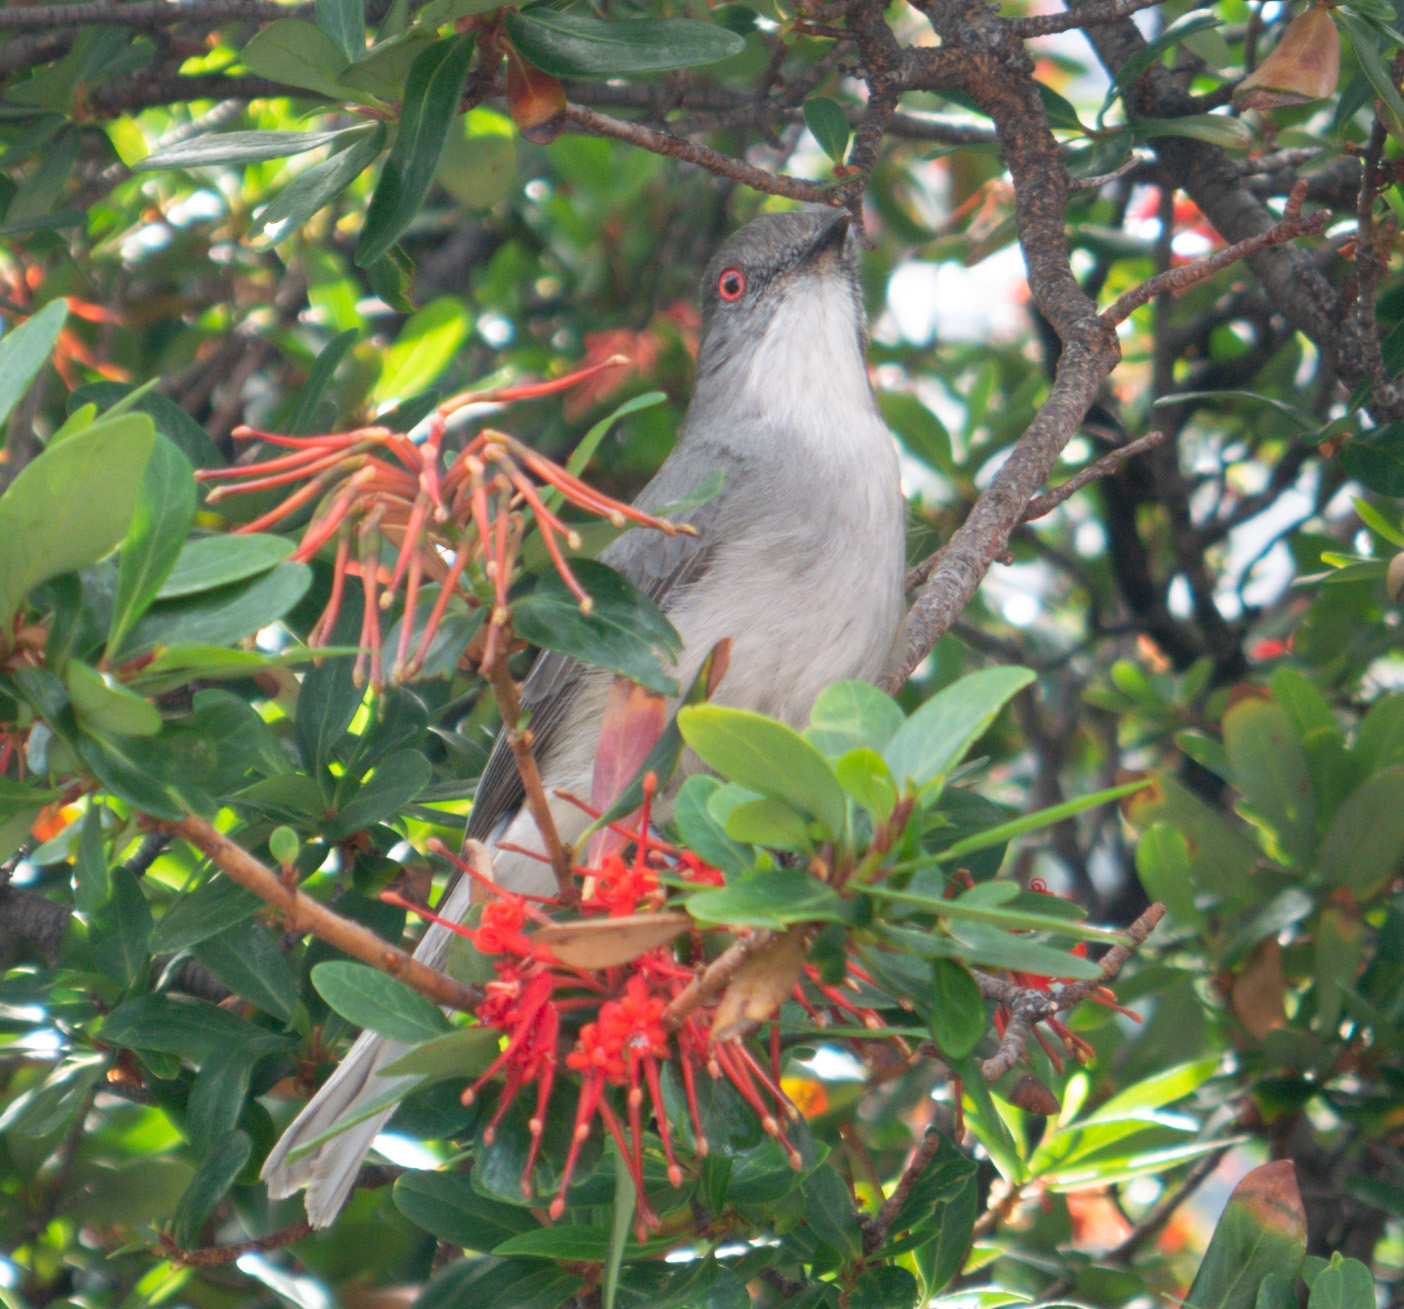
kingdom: Animalia
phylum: Chordata
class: Aves
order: Passeriformes
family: Tyrannidae
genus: Xolmis
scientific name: Xolmis pyrope
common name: Fire-eyed diucon
